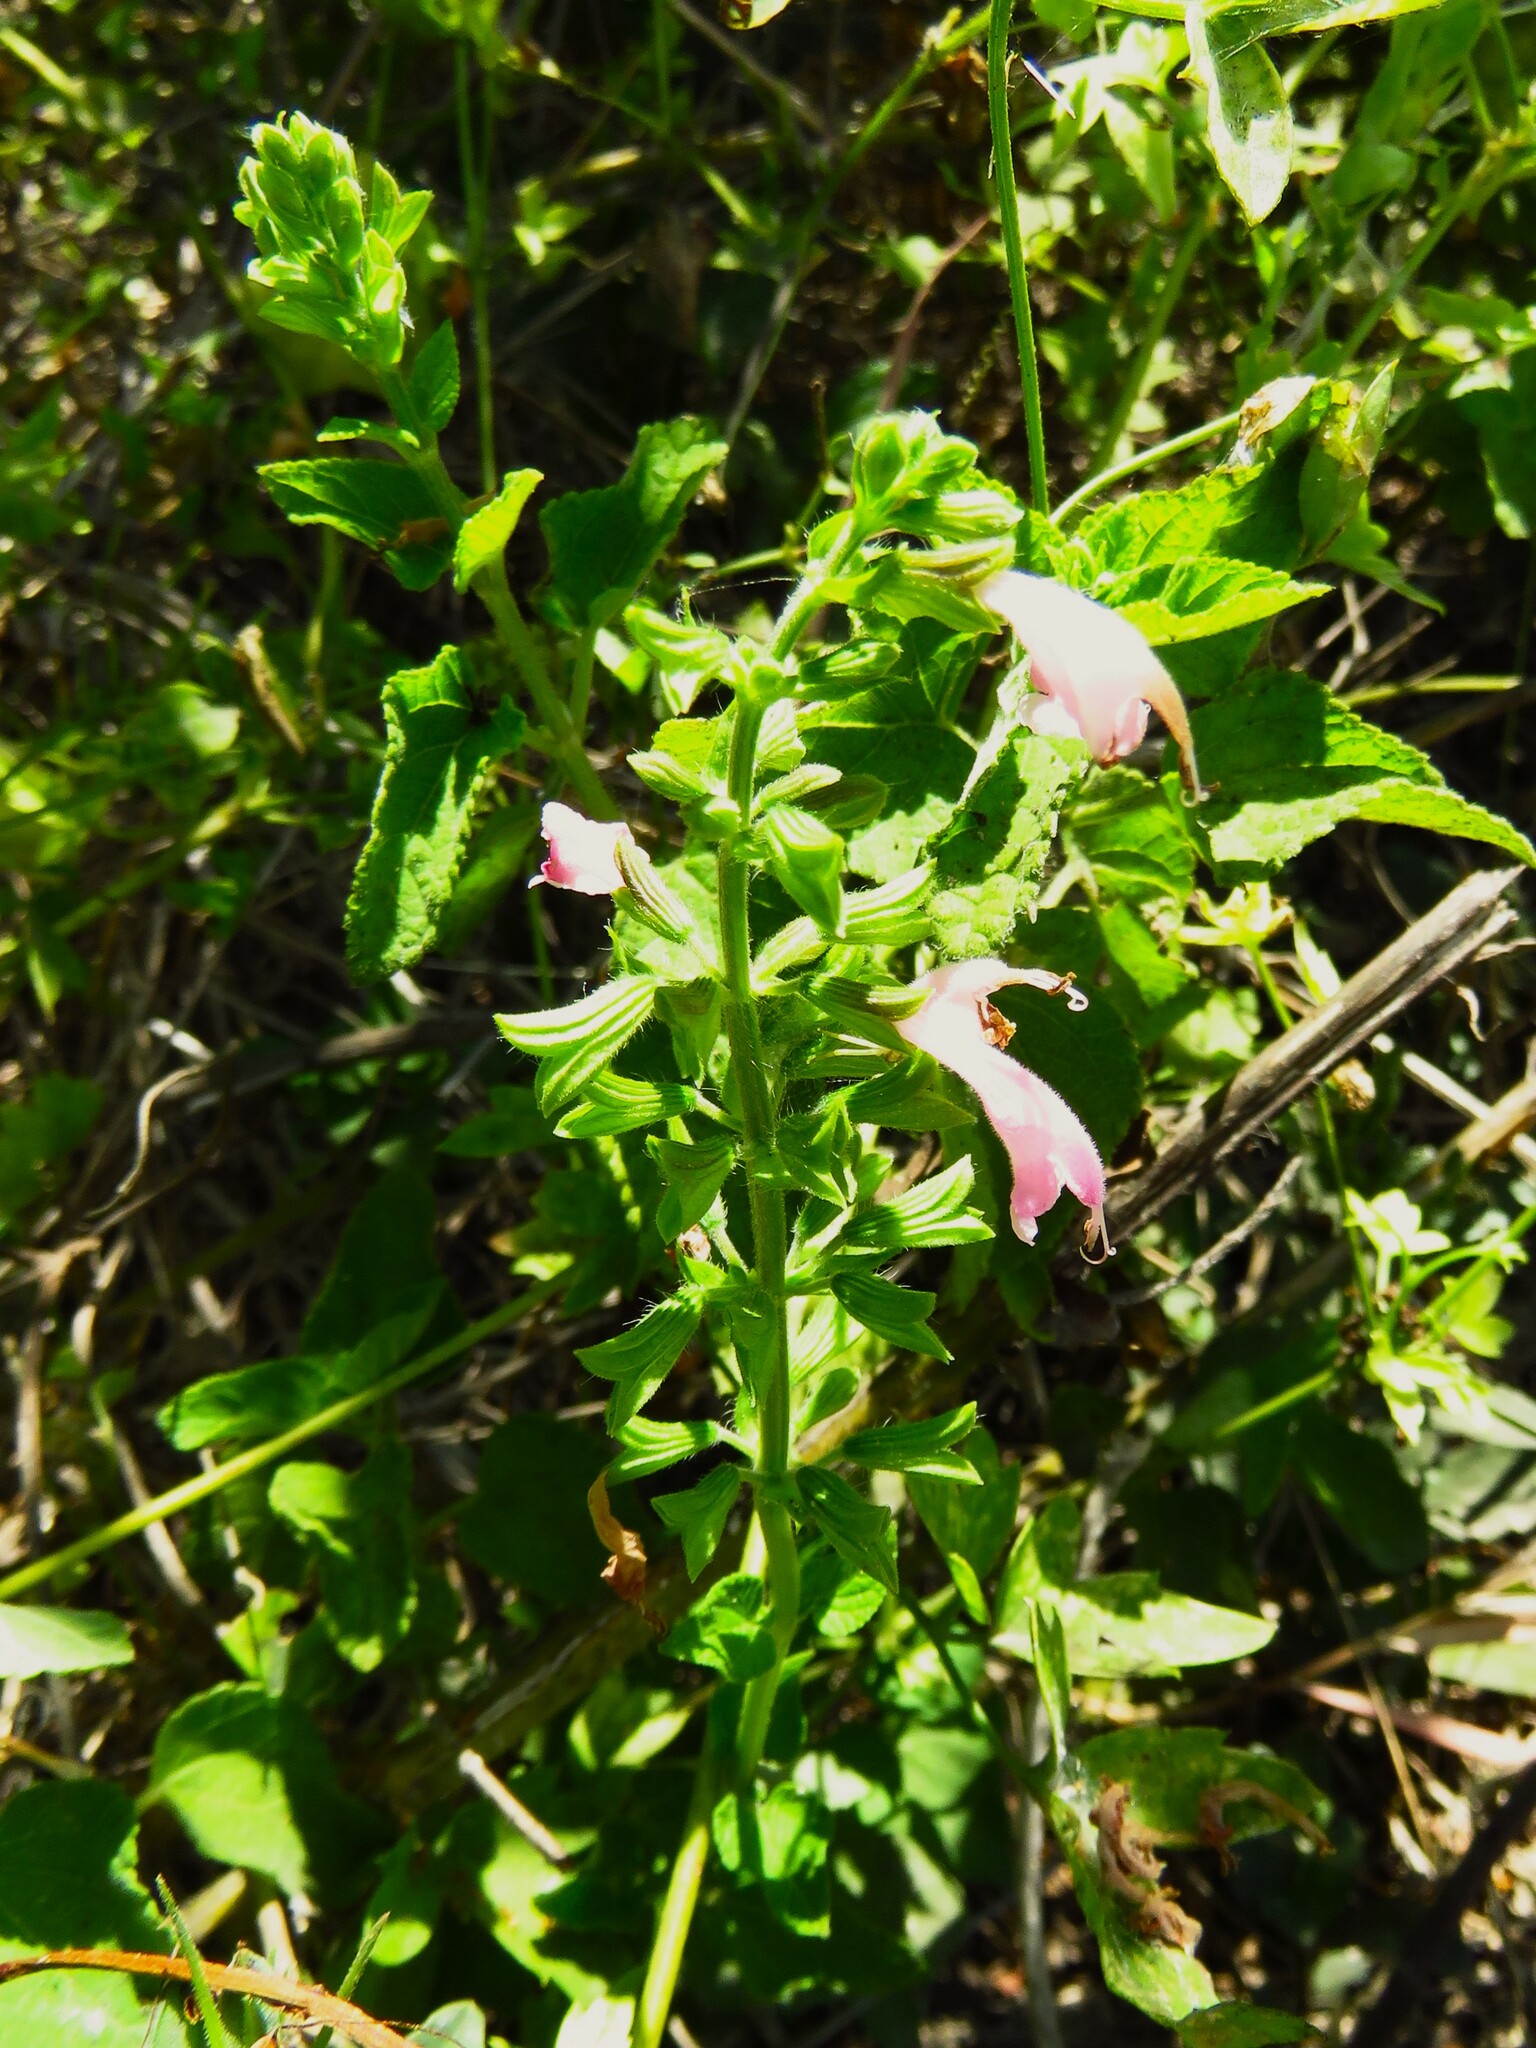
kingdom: Plantae
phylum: Tracheophyta
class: Magnoliopsida
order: Lamiales
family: Lamiaceae
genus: Salvia
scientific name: Salvia coccinea
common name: Blood sage
